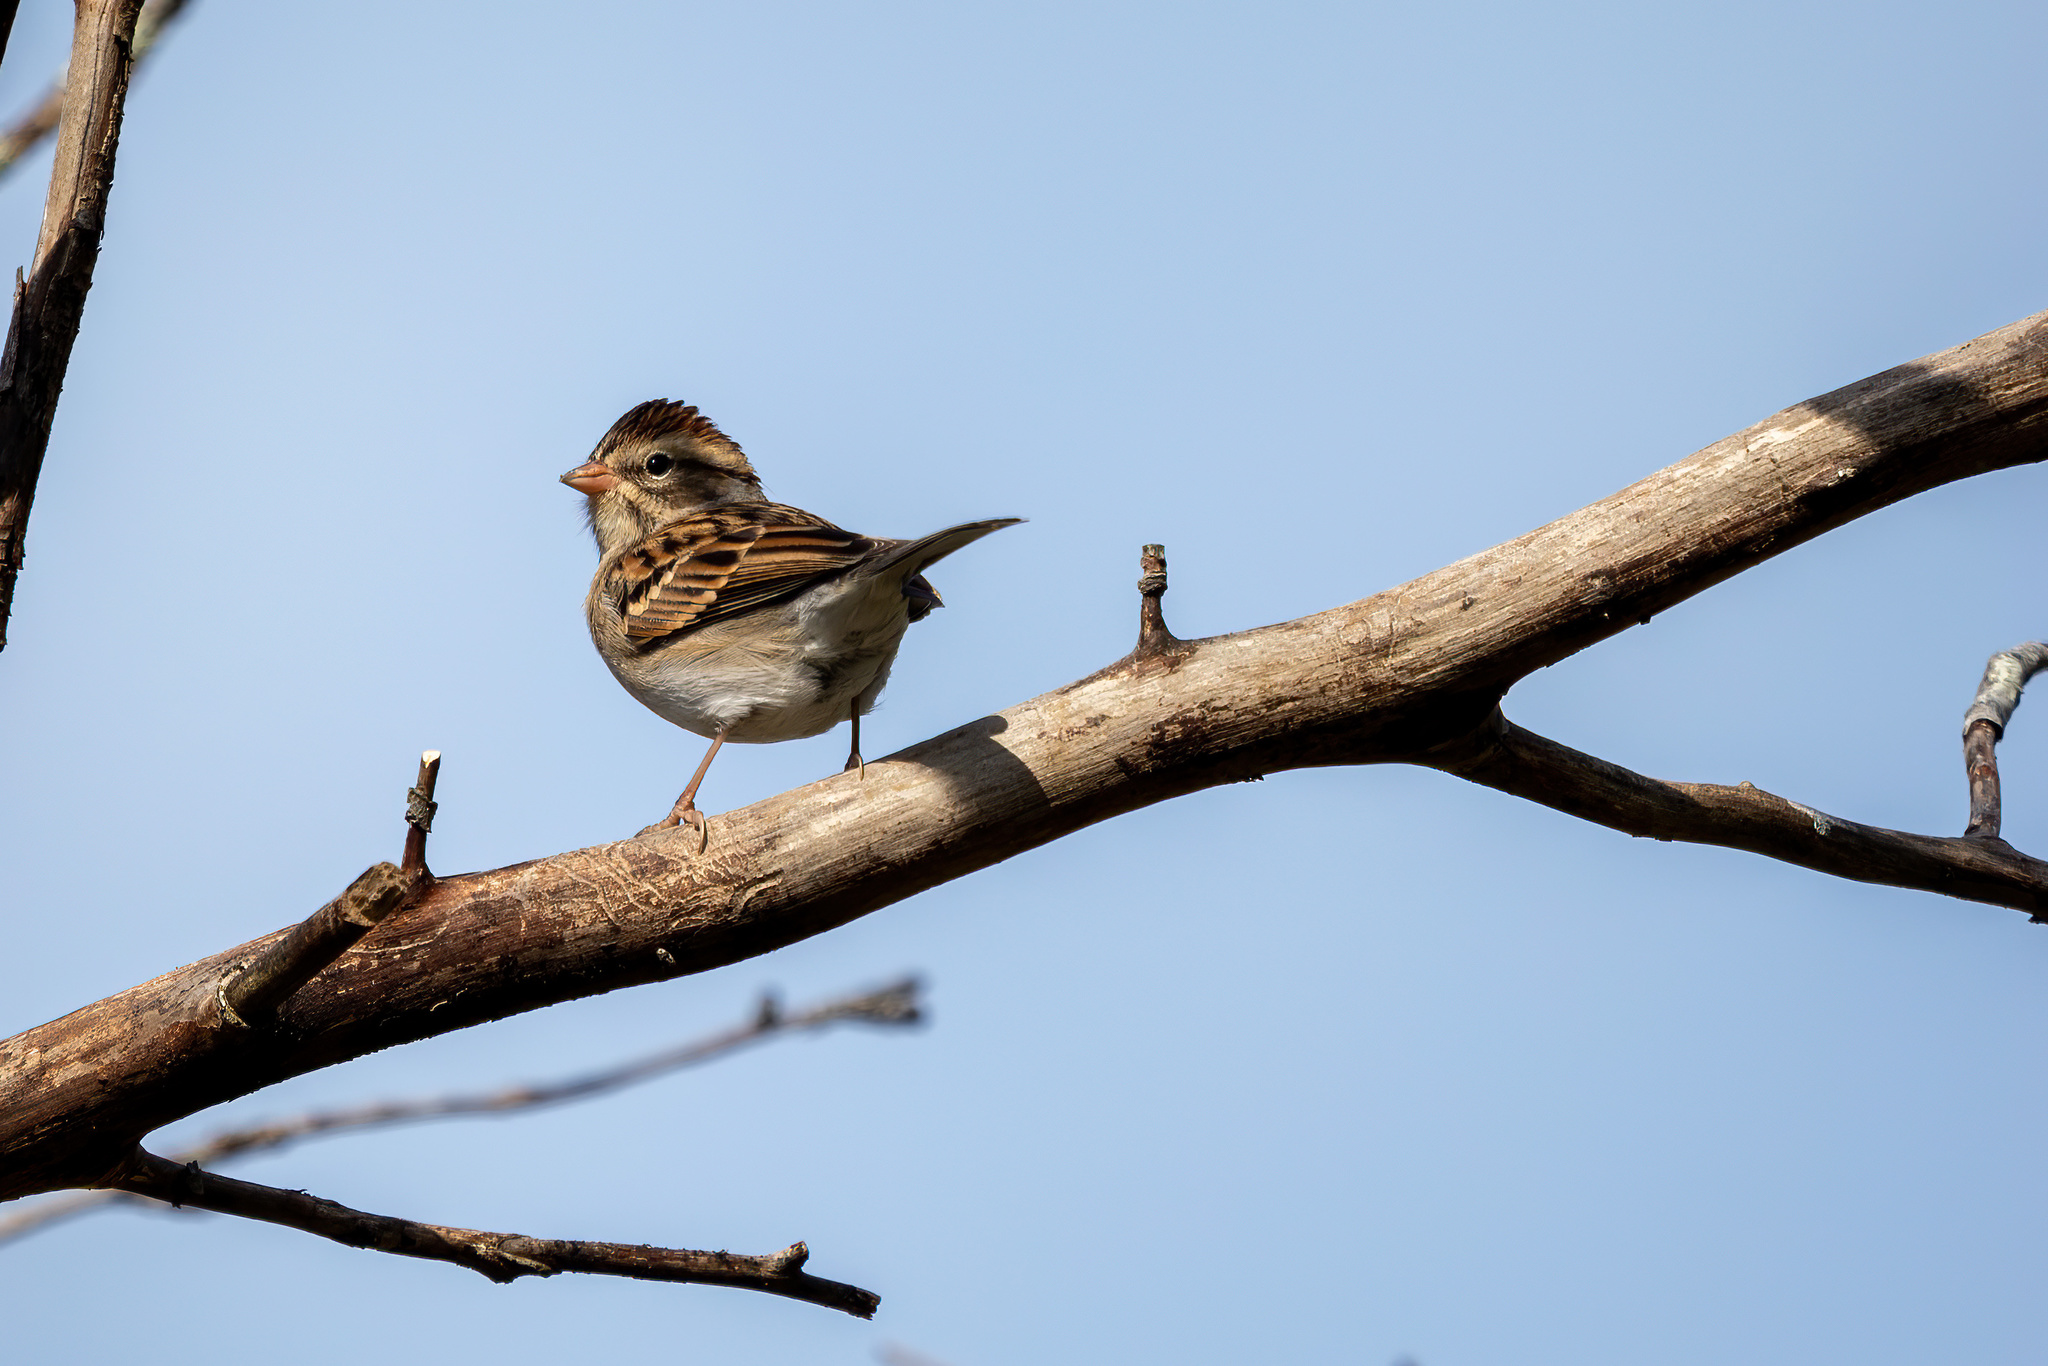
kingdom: Animalia
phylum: Chordata
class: Aves
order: Passeriformes
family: Passerellidae
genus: Spizella
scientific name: Spizella passerina
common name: Chipping sparrow
